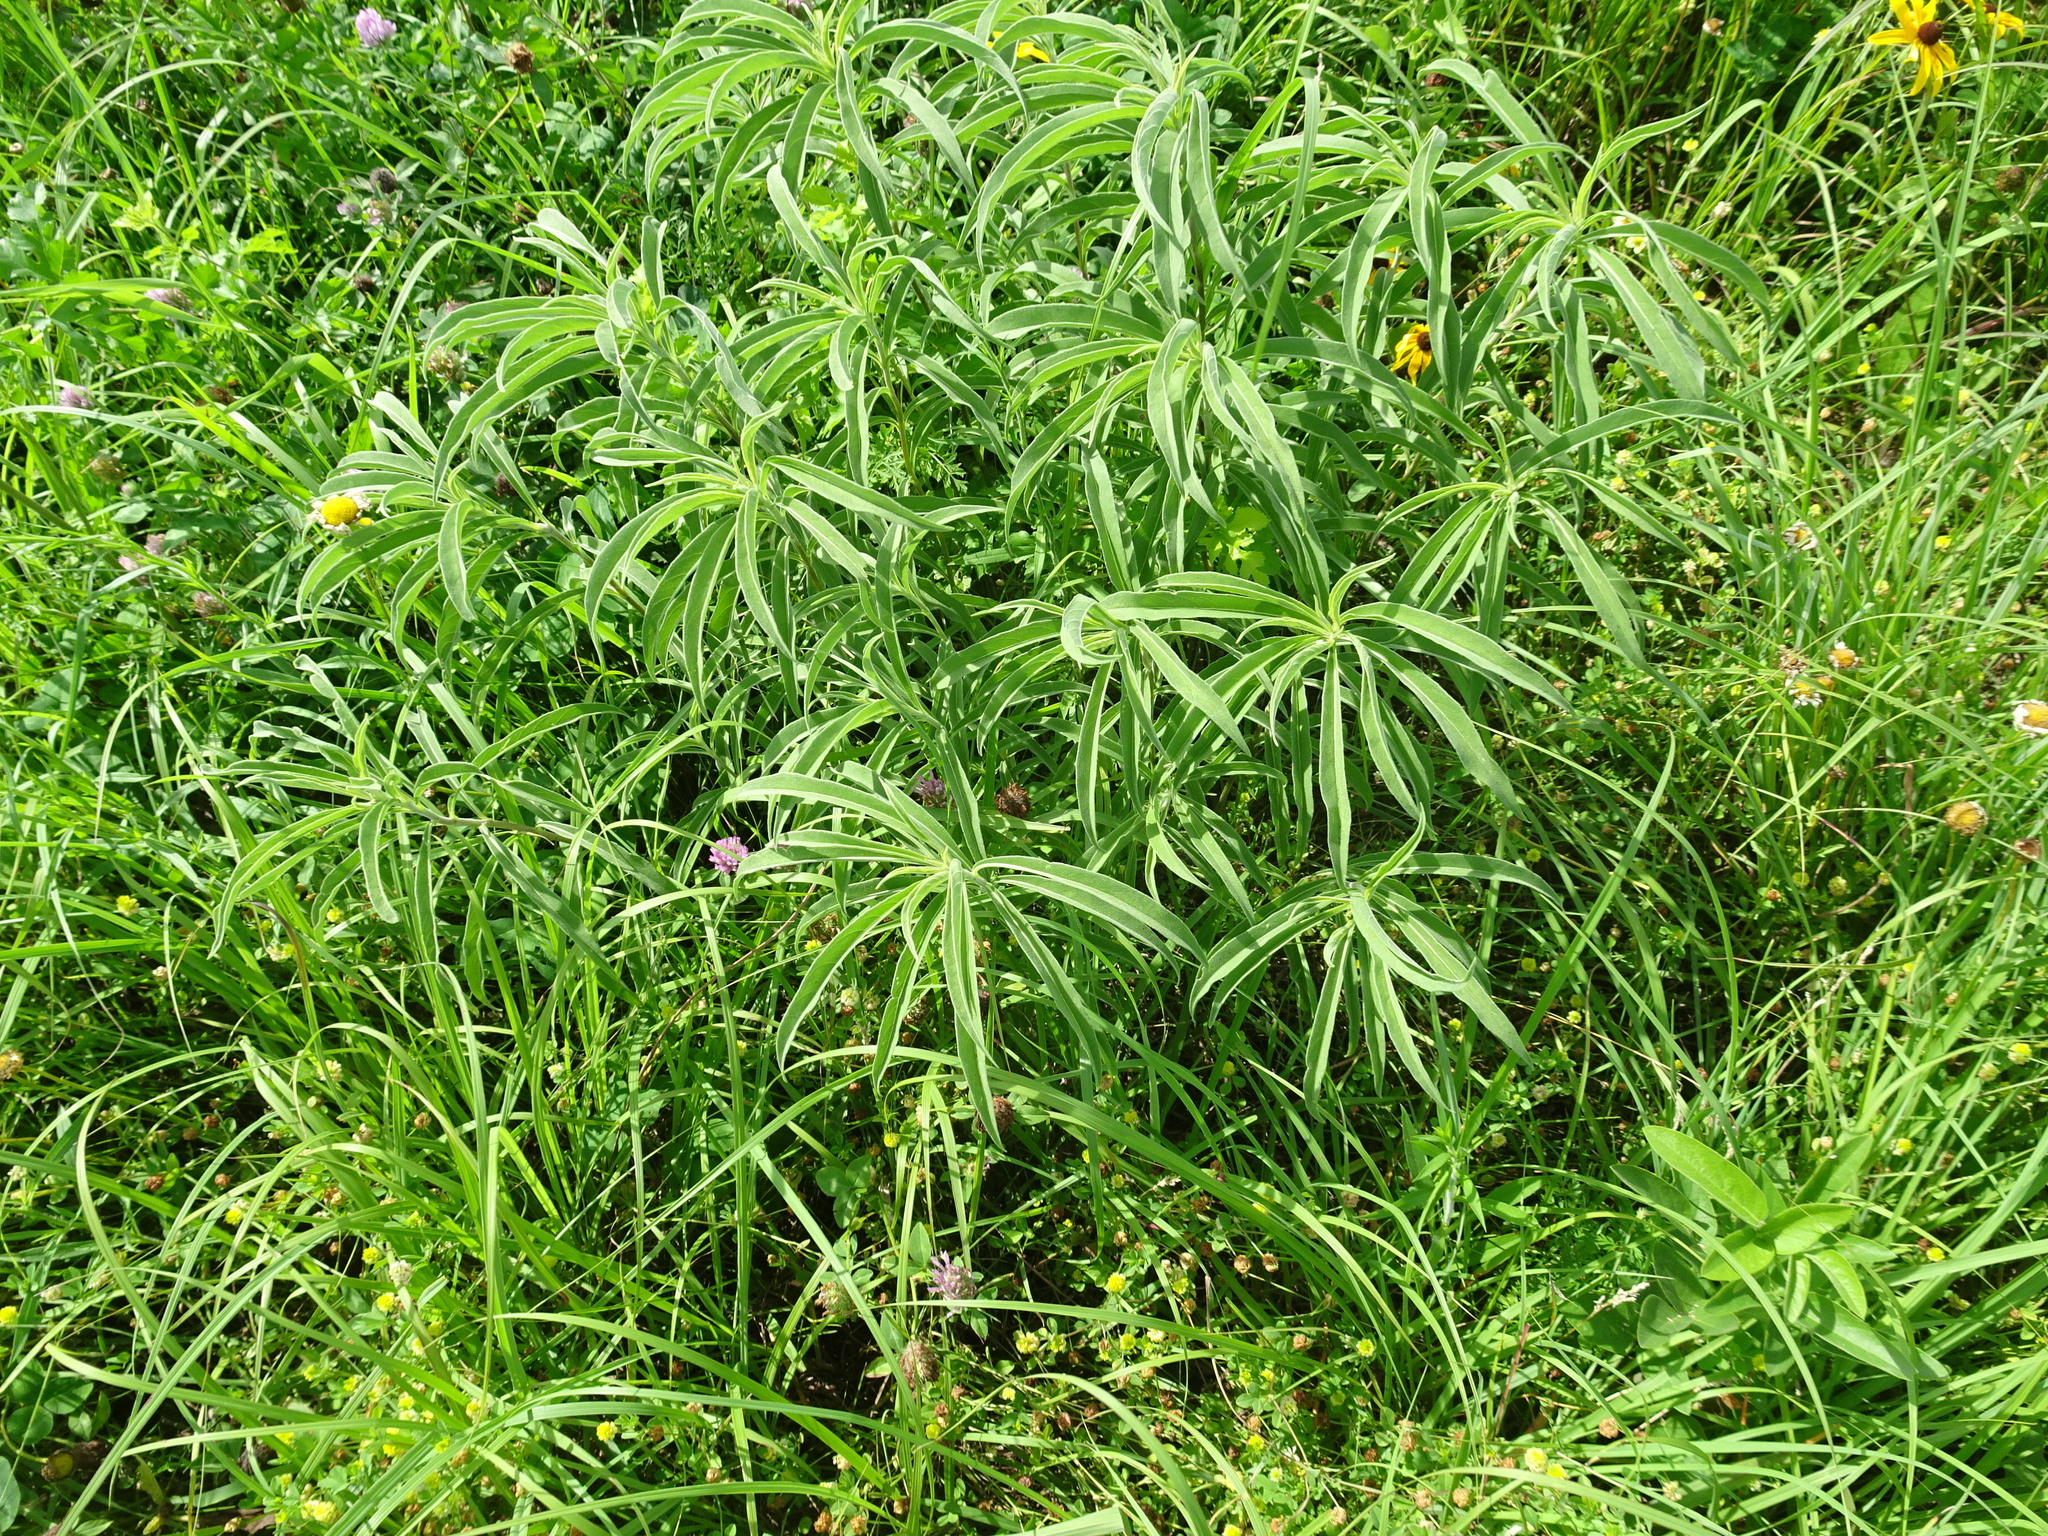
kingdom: Plantae
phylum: Tracheophyta
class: Magnoliopsida
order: Asterales
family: Asteraceae
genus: Helianthus
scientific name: Helianthus maximiliani
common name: Maximilian's sunflower
